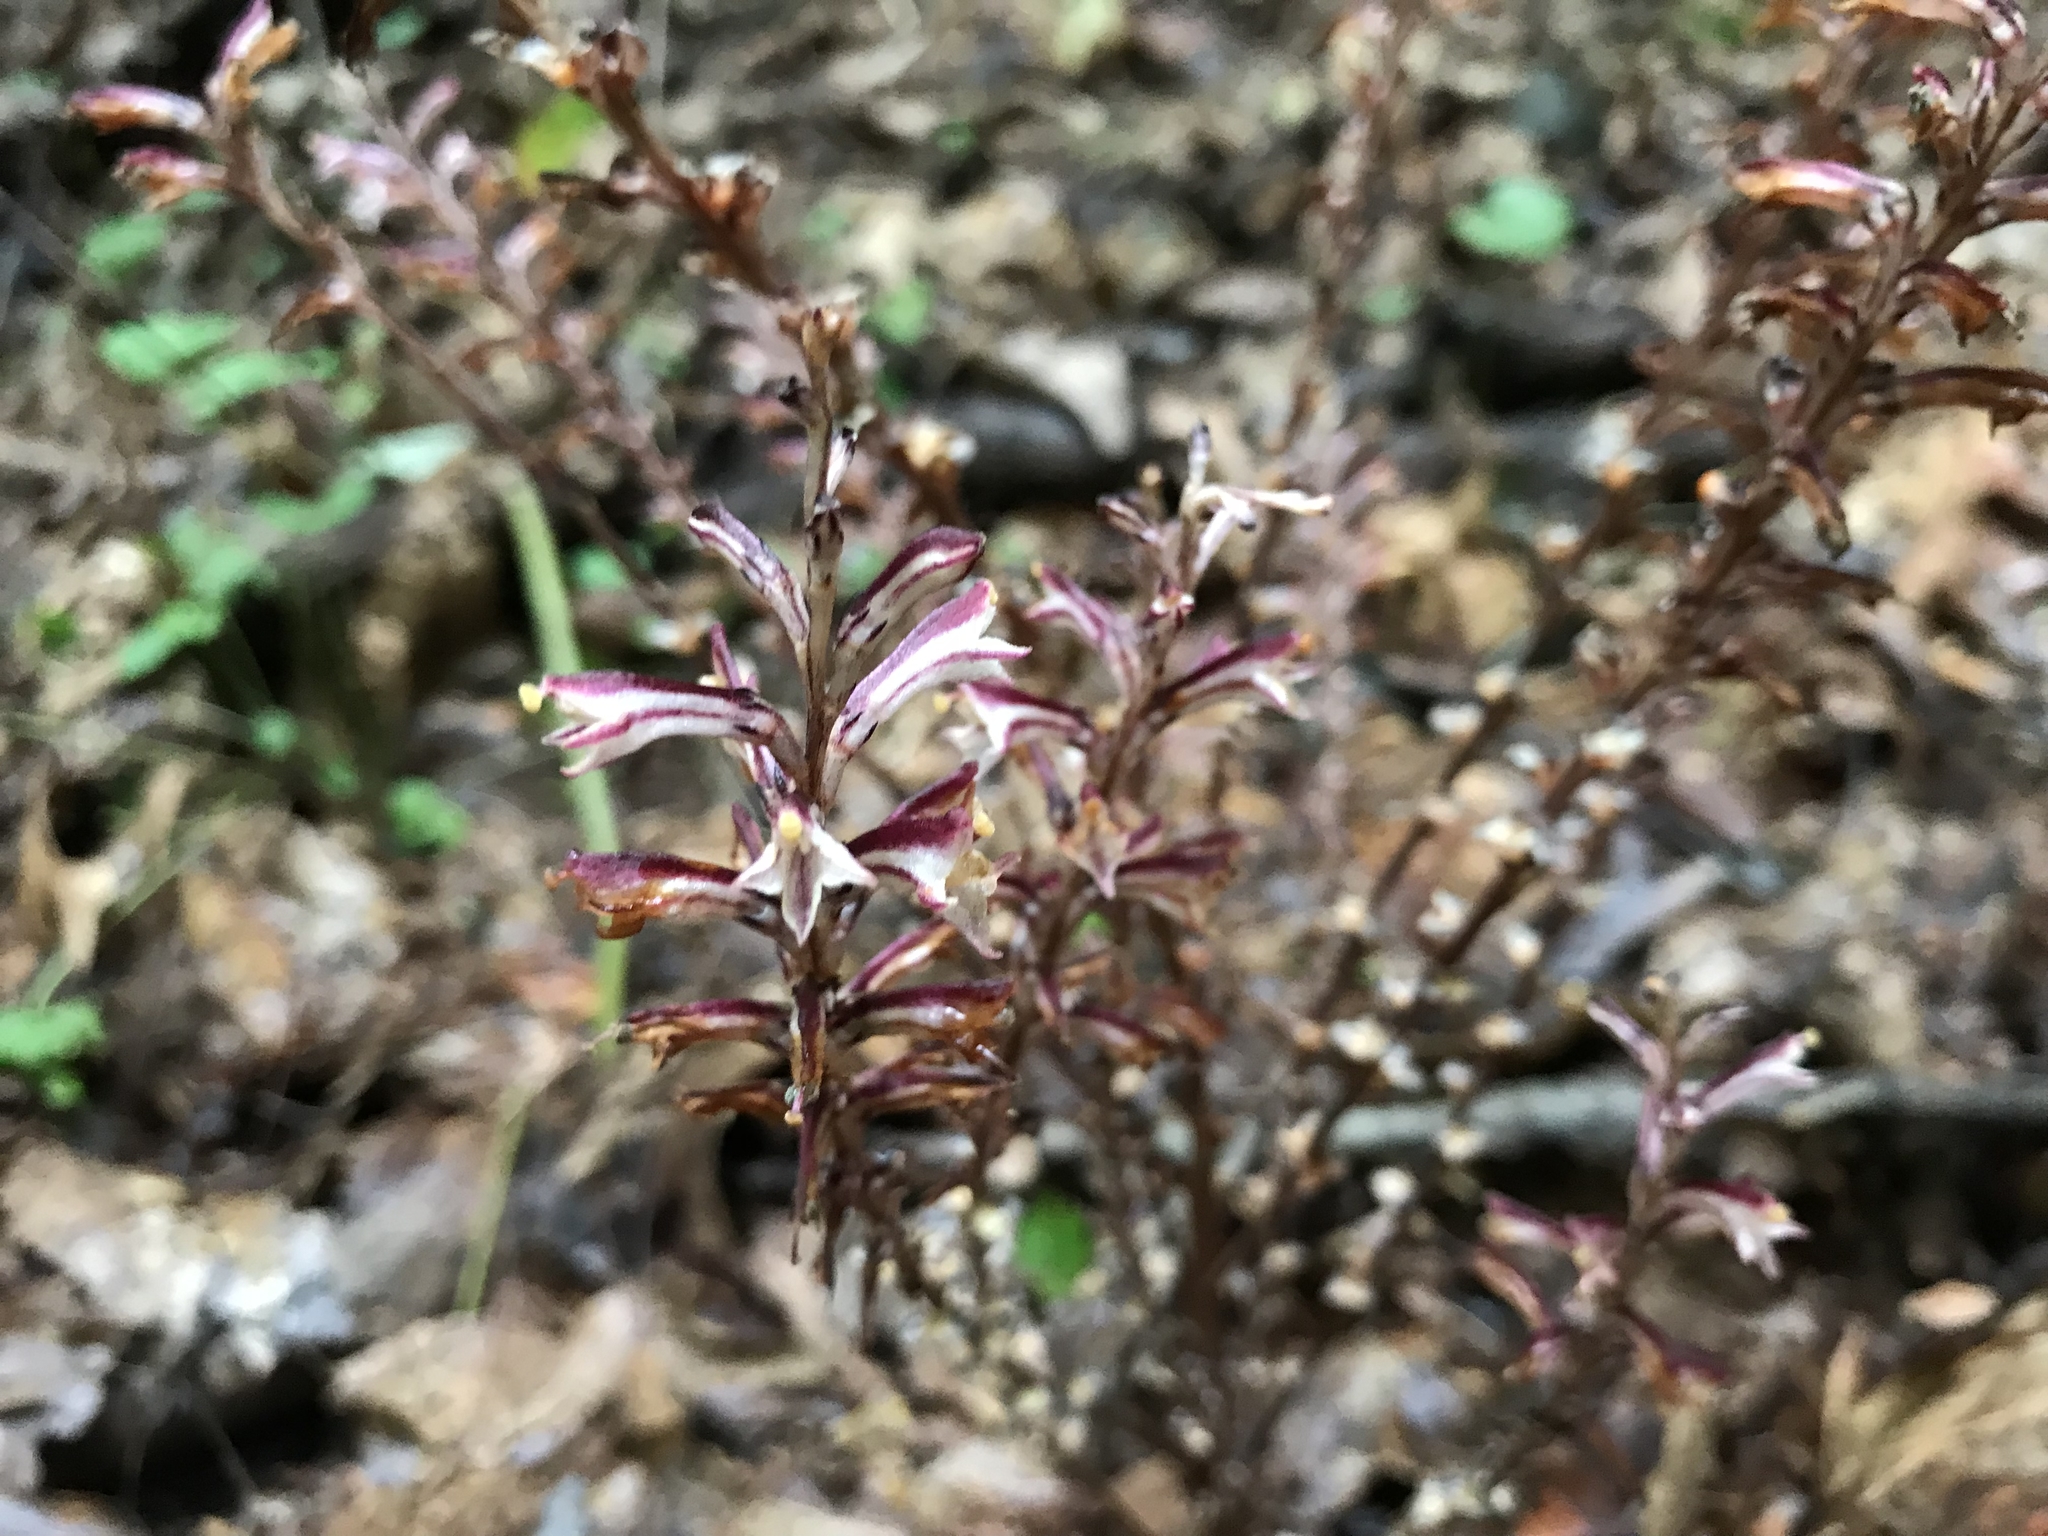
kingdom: Plantae
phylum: Tracheophyta
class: Magnoliopsida
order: Lamiales
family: Orobanchaceae
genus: Epifagus
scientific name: Epifagus virginiana
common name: Beechdrops
